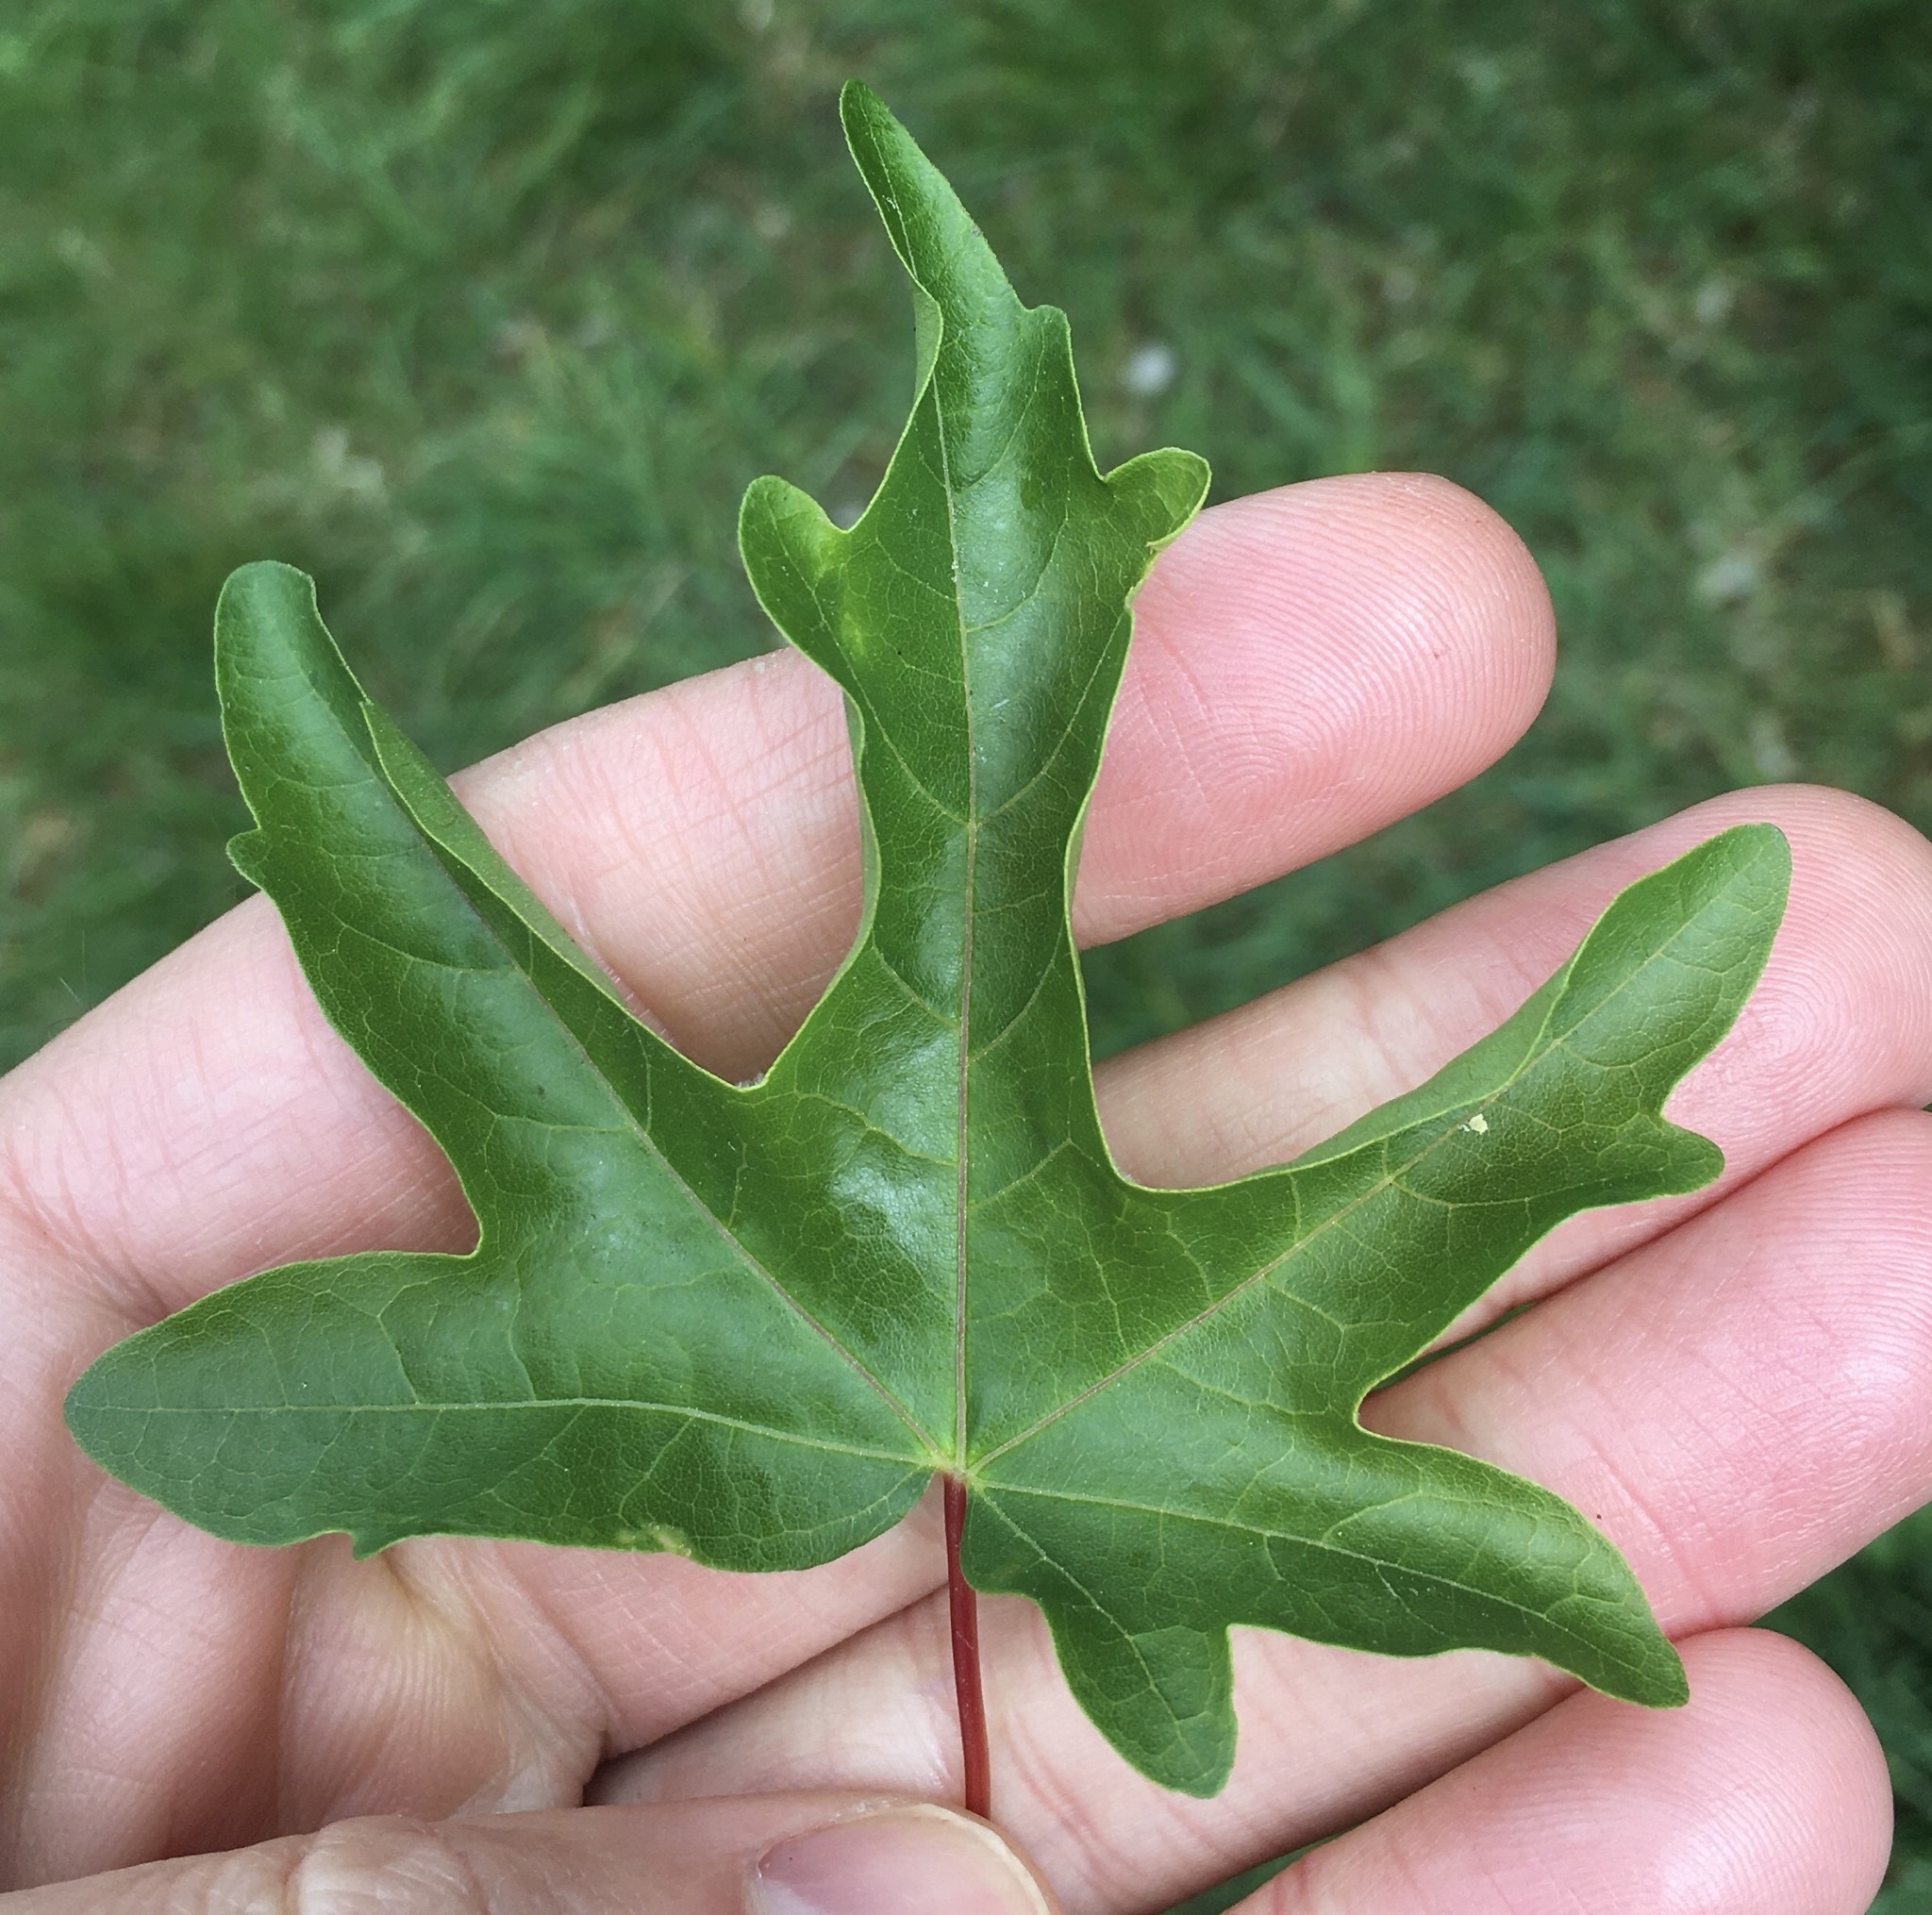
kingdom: Plantae
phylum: Tracheophyta
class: Magnoliopsida
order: Sapindales
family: Sapindaceae
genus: Acer
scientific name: Acer campestre
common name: Field maple
